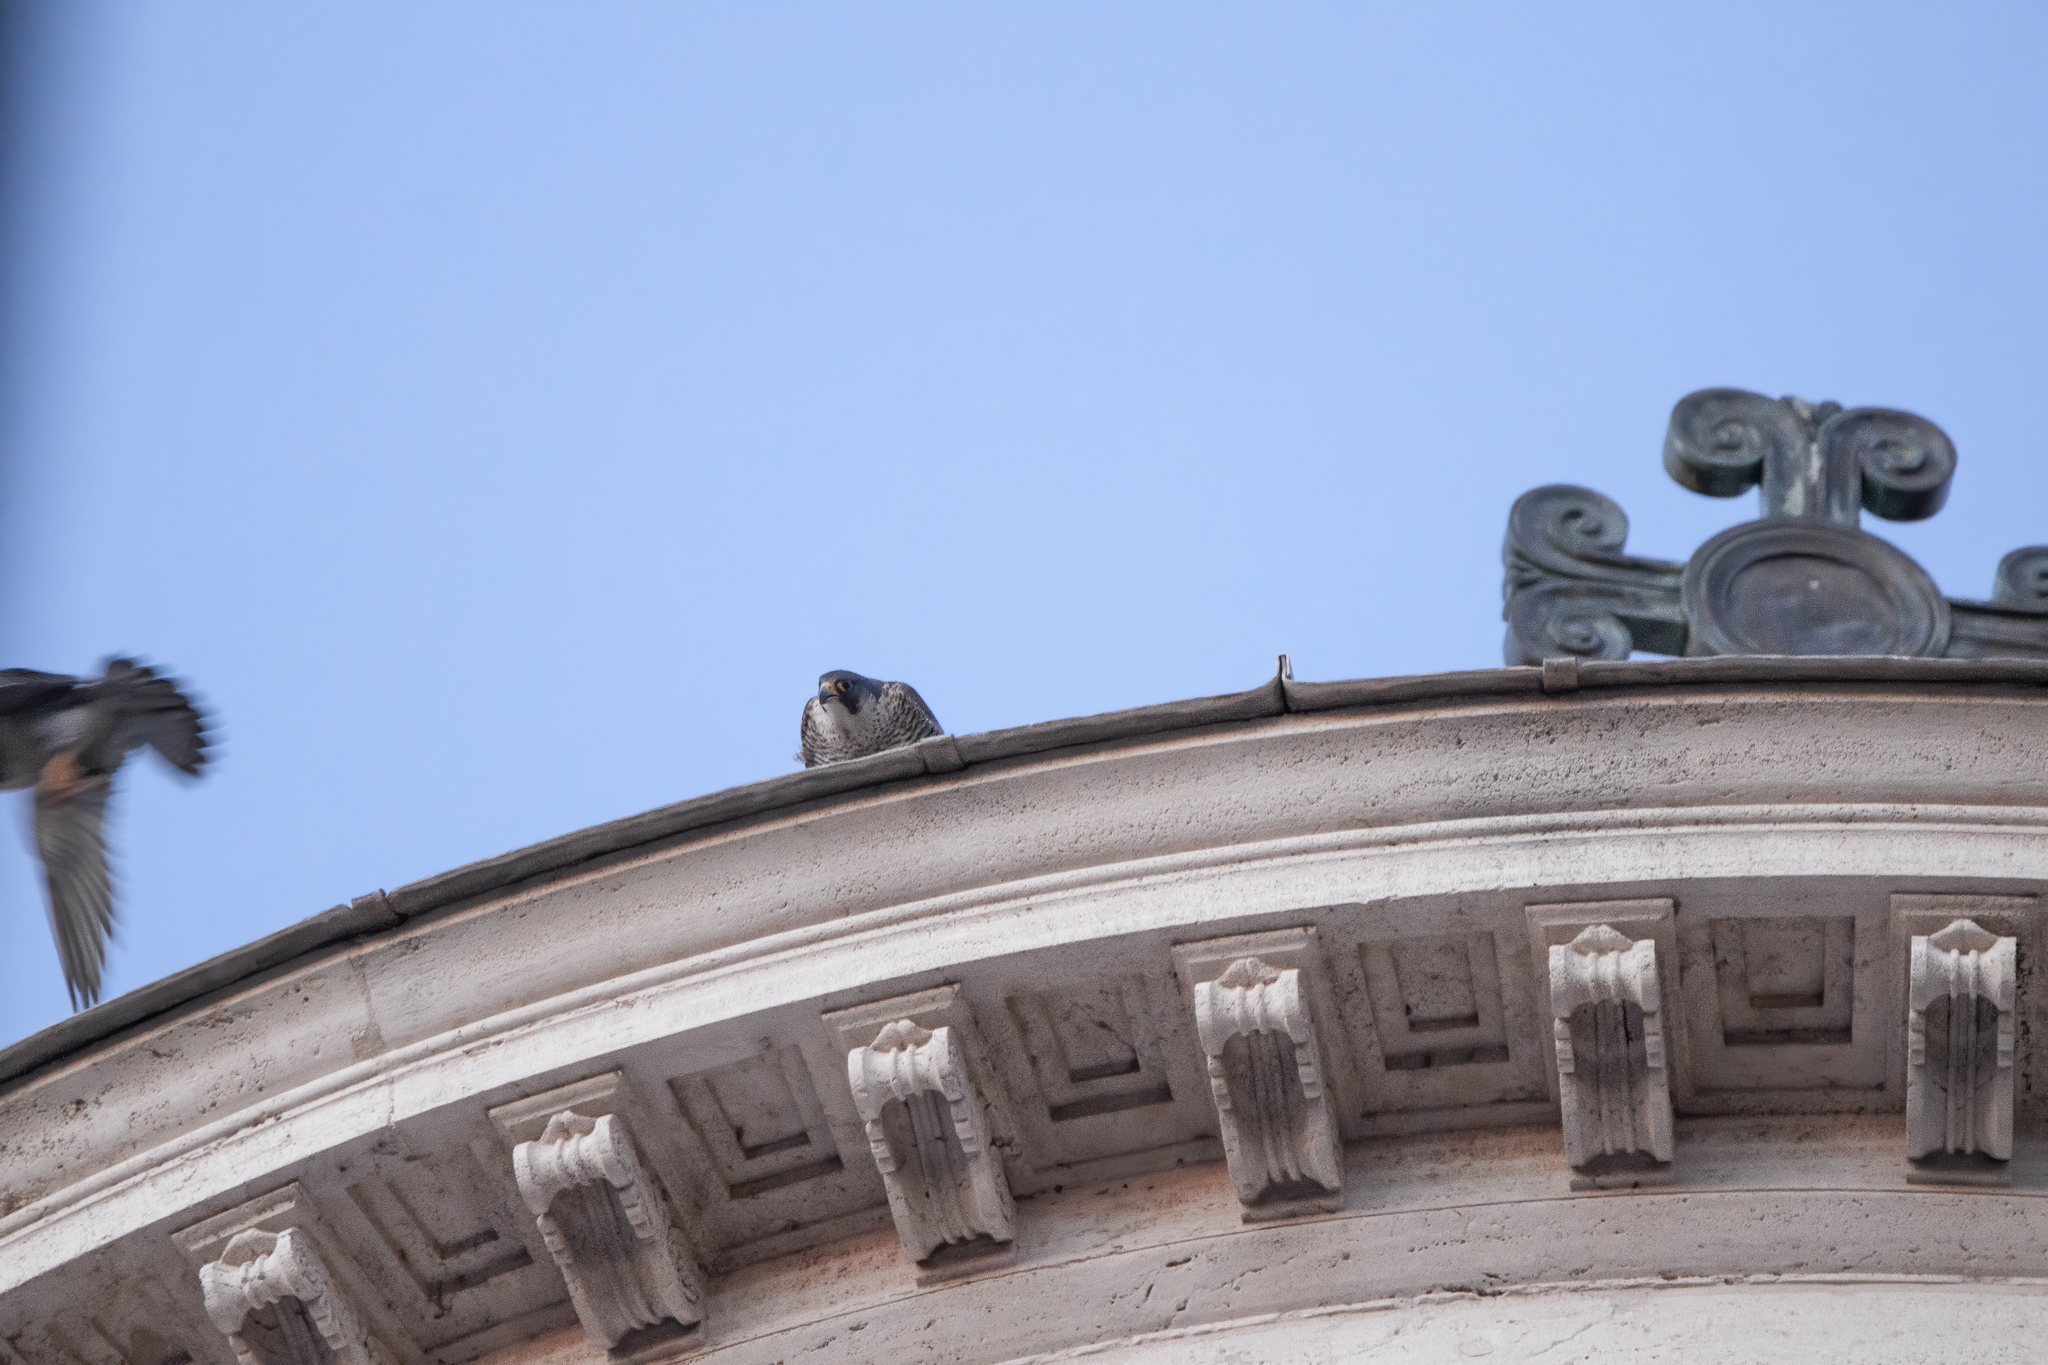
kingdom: Animalia
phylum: Chordata
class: Aves
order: Falconiformes
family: Falconidae
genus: Falco
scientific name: Falco peregrinus
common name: Peregrine falcon
